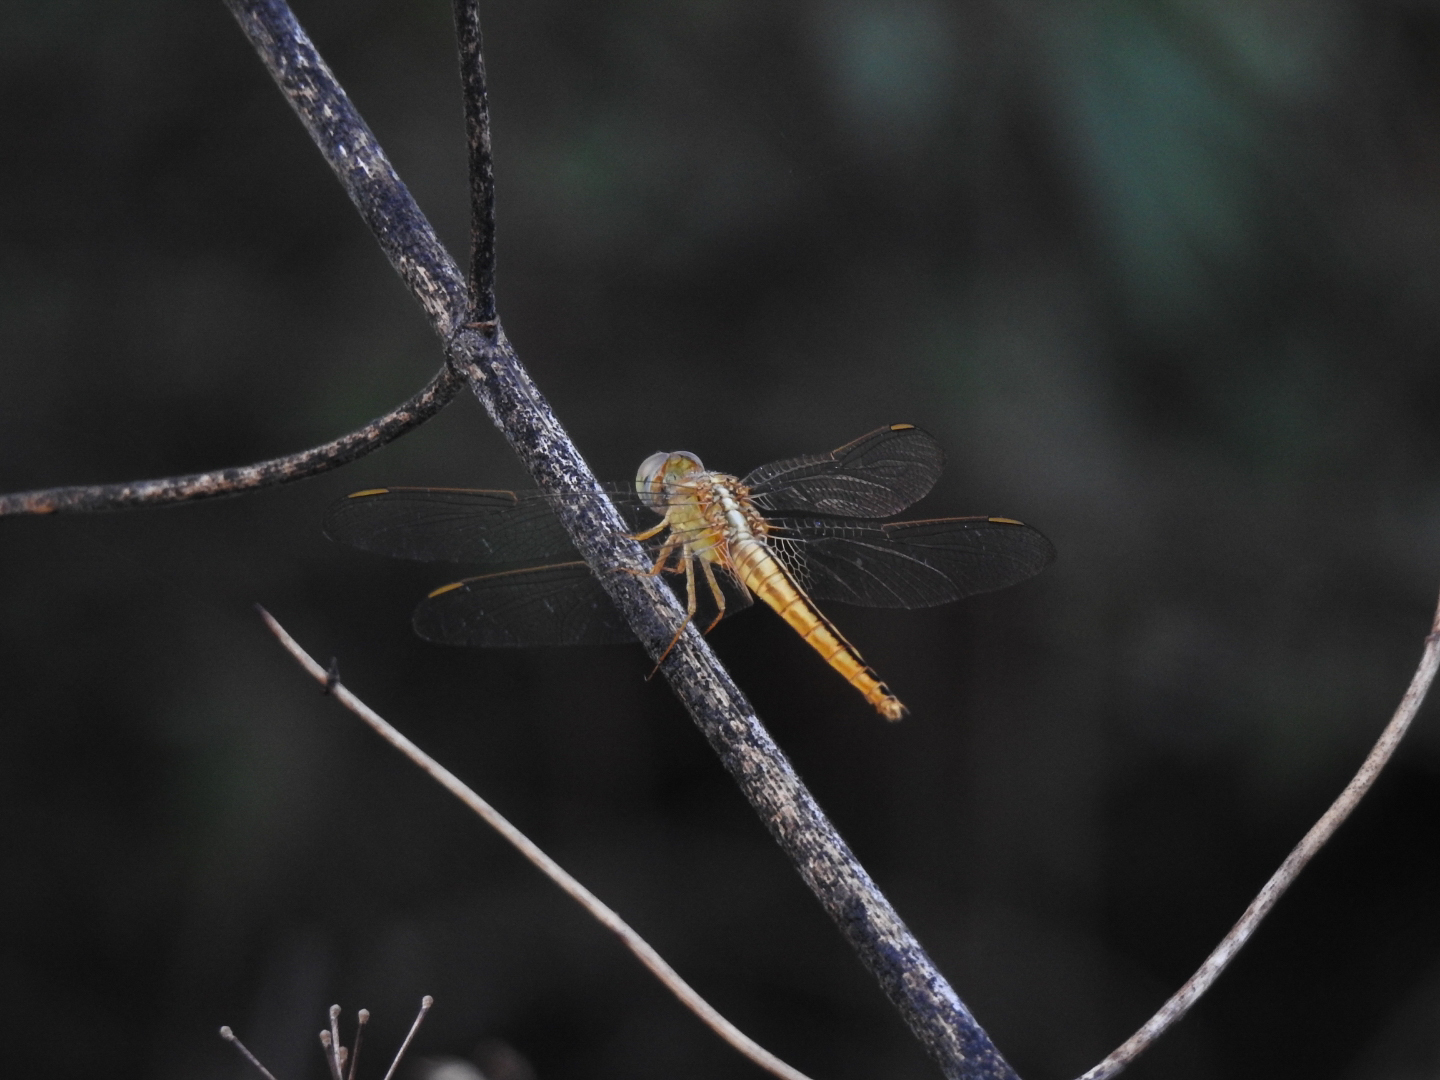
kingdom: Animalia
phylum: Arthropoda
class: Insecta
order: Odonata
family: Libellulidae
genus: Crocothemis
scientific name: Crocothemis servilia
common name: Scarlet skimmer
